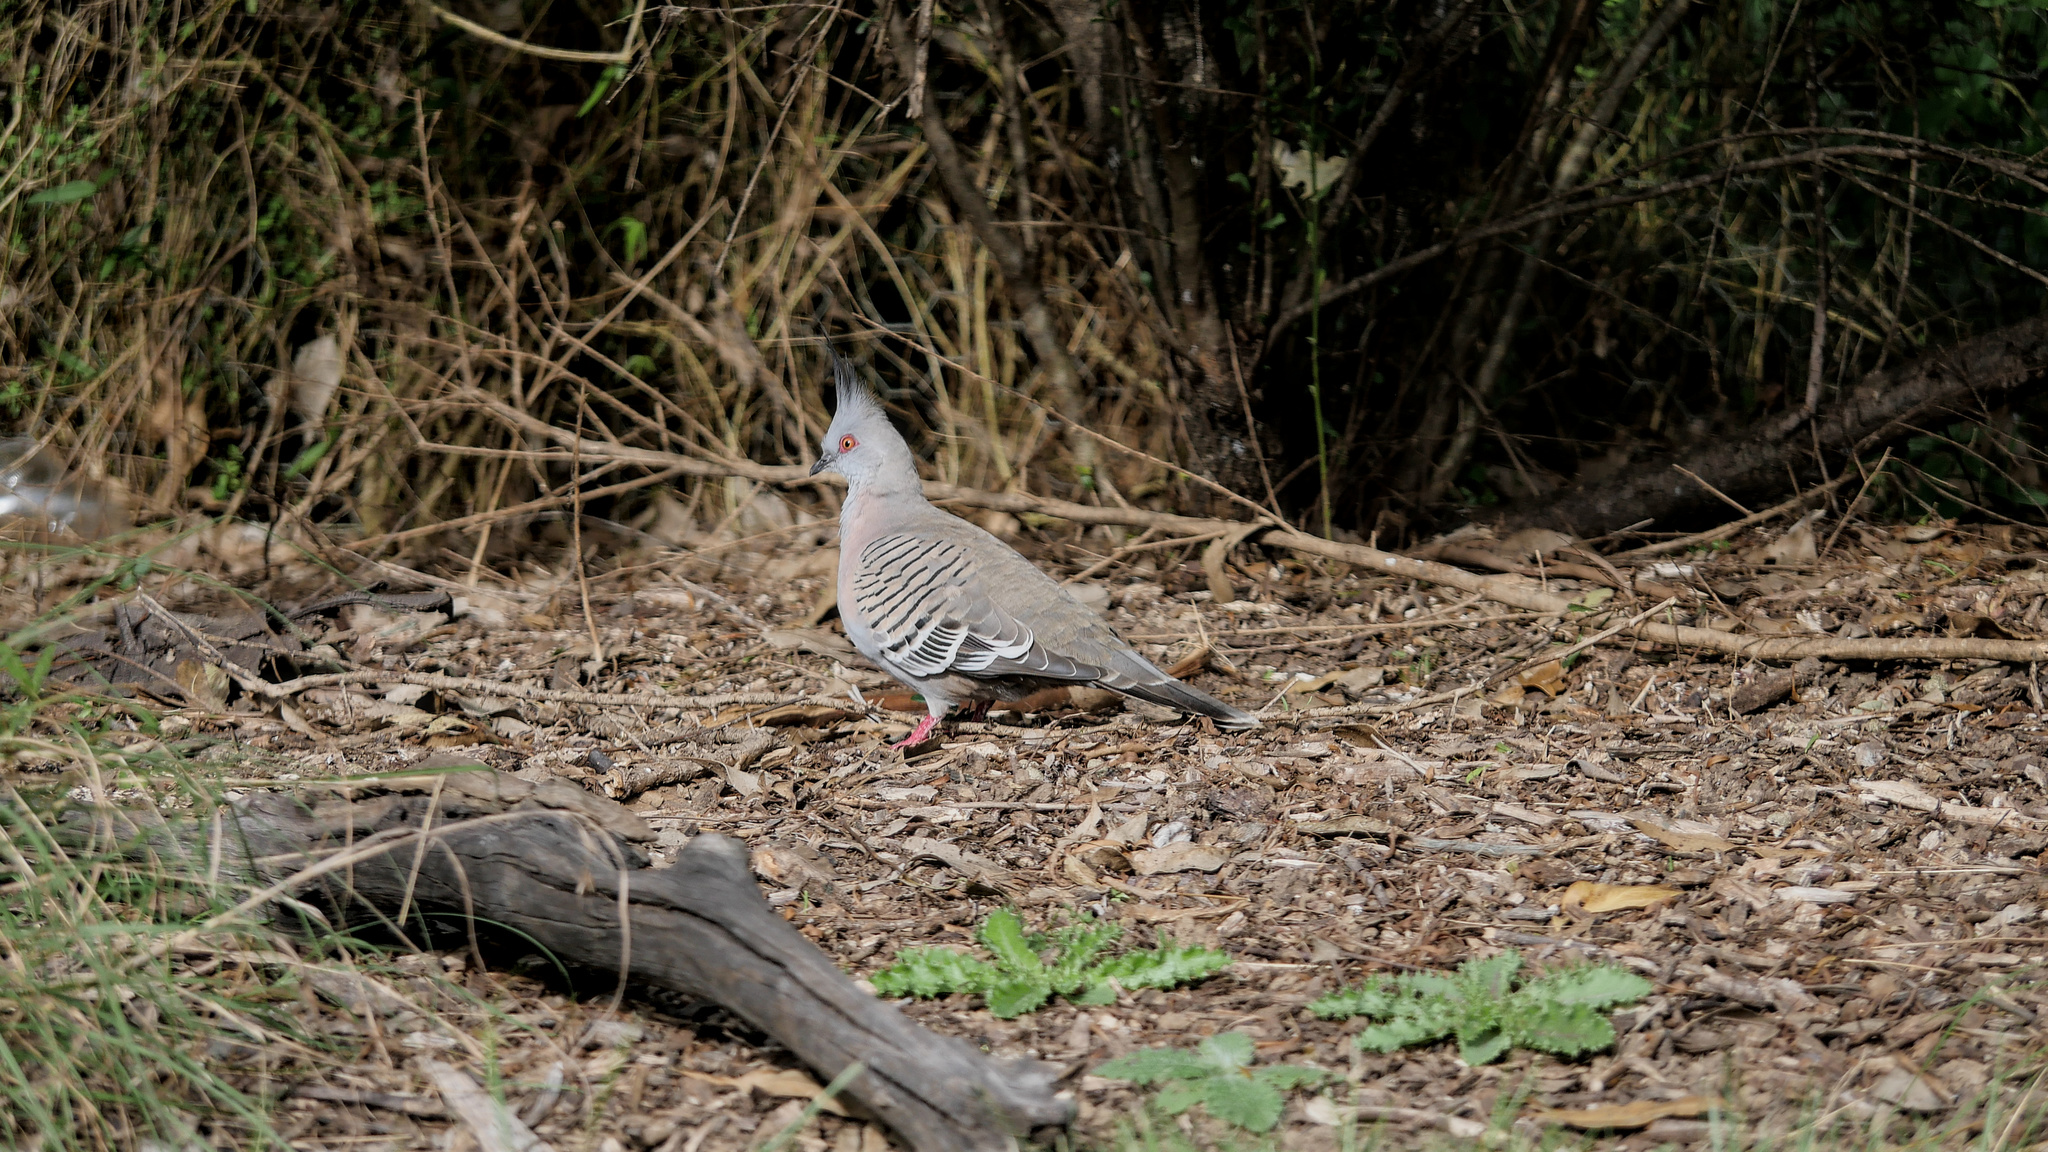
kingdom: Animalia
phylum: Chordata
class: Aves
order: Columbiformes
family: Columbidae
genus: Ocyphaps
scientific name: Ocyphaps lophotes
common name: Crested pigeon
